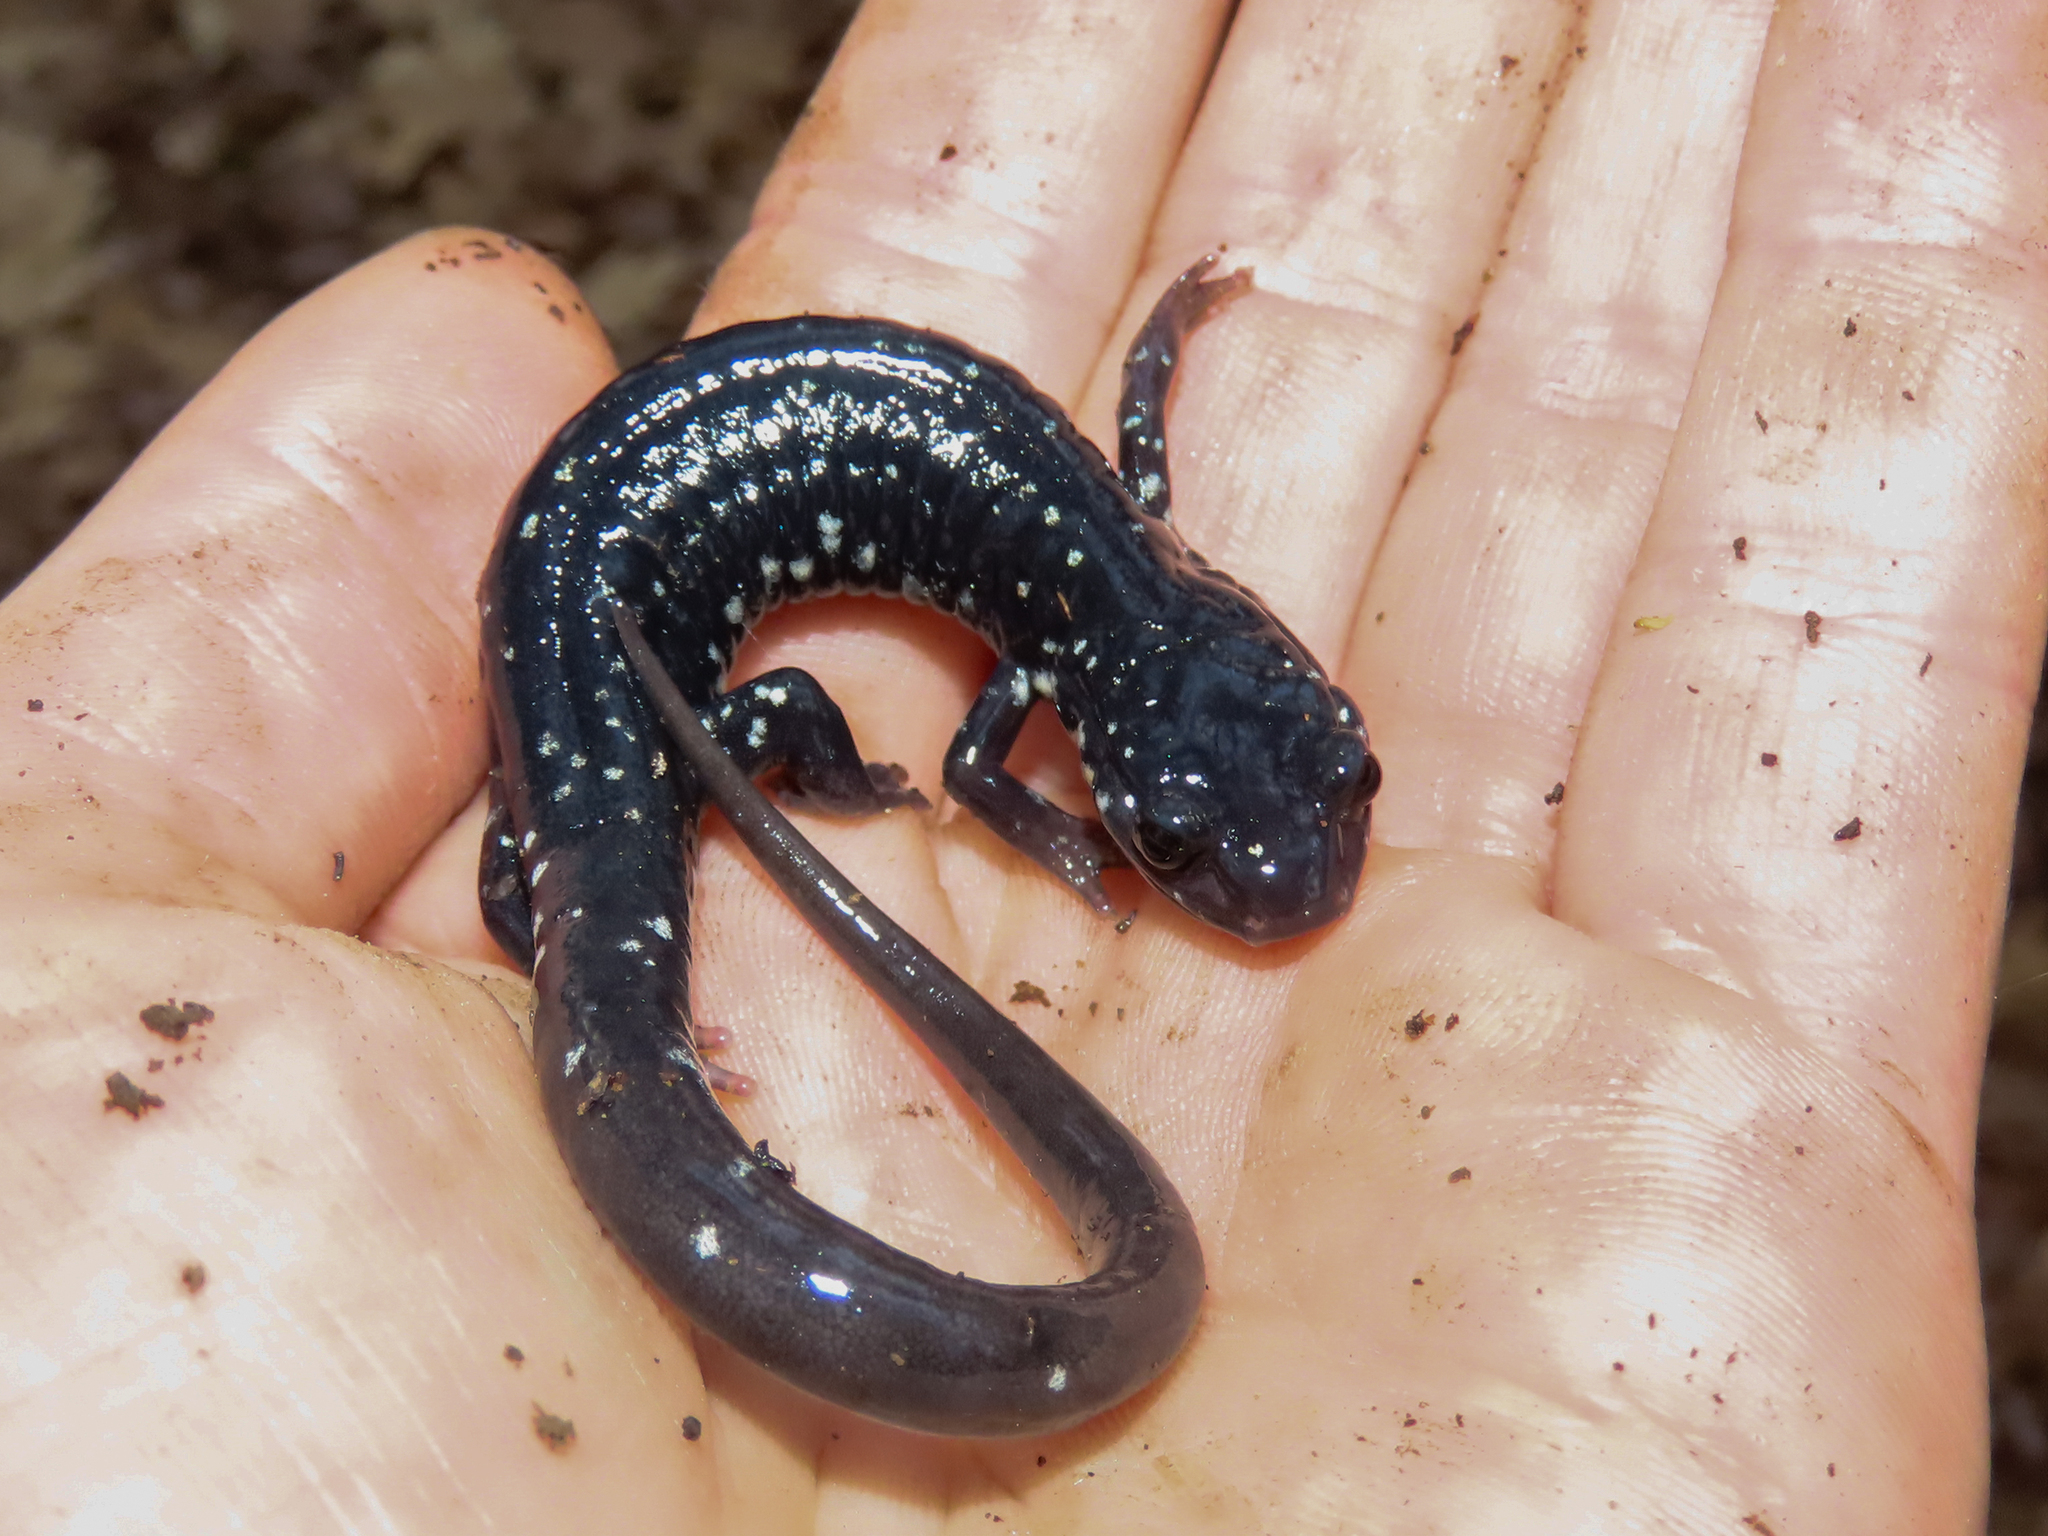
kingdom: Animalia
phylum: Chordata
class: Amphibia
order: Caudata
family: Plethodontidae
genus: Plethodon
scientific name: Plethodon glutinosus
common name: Northern slimy salamander
